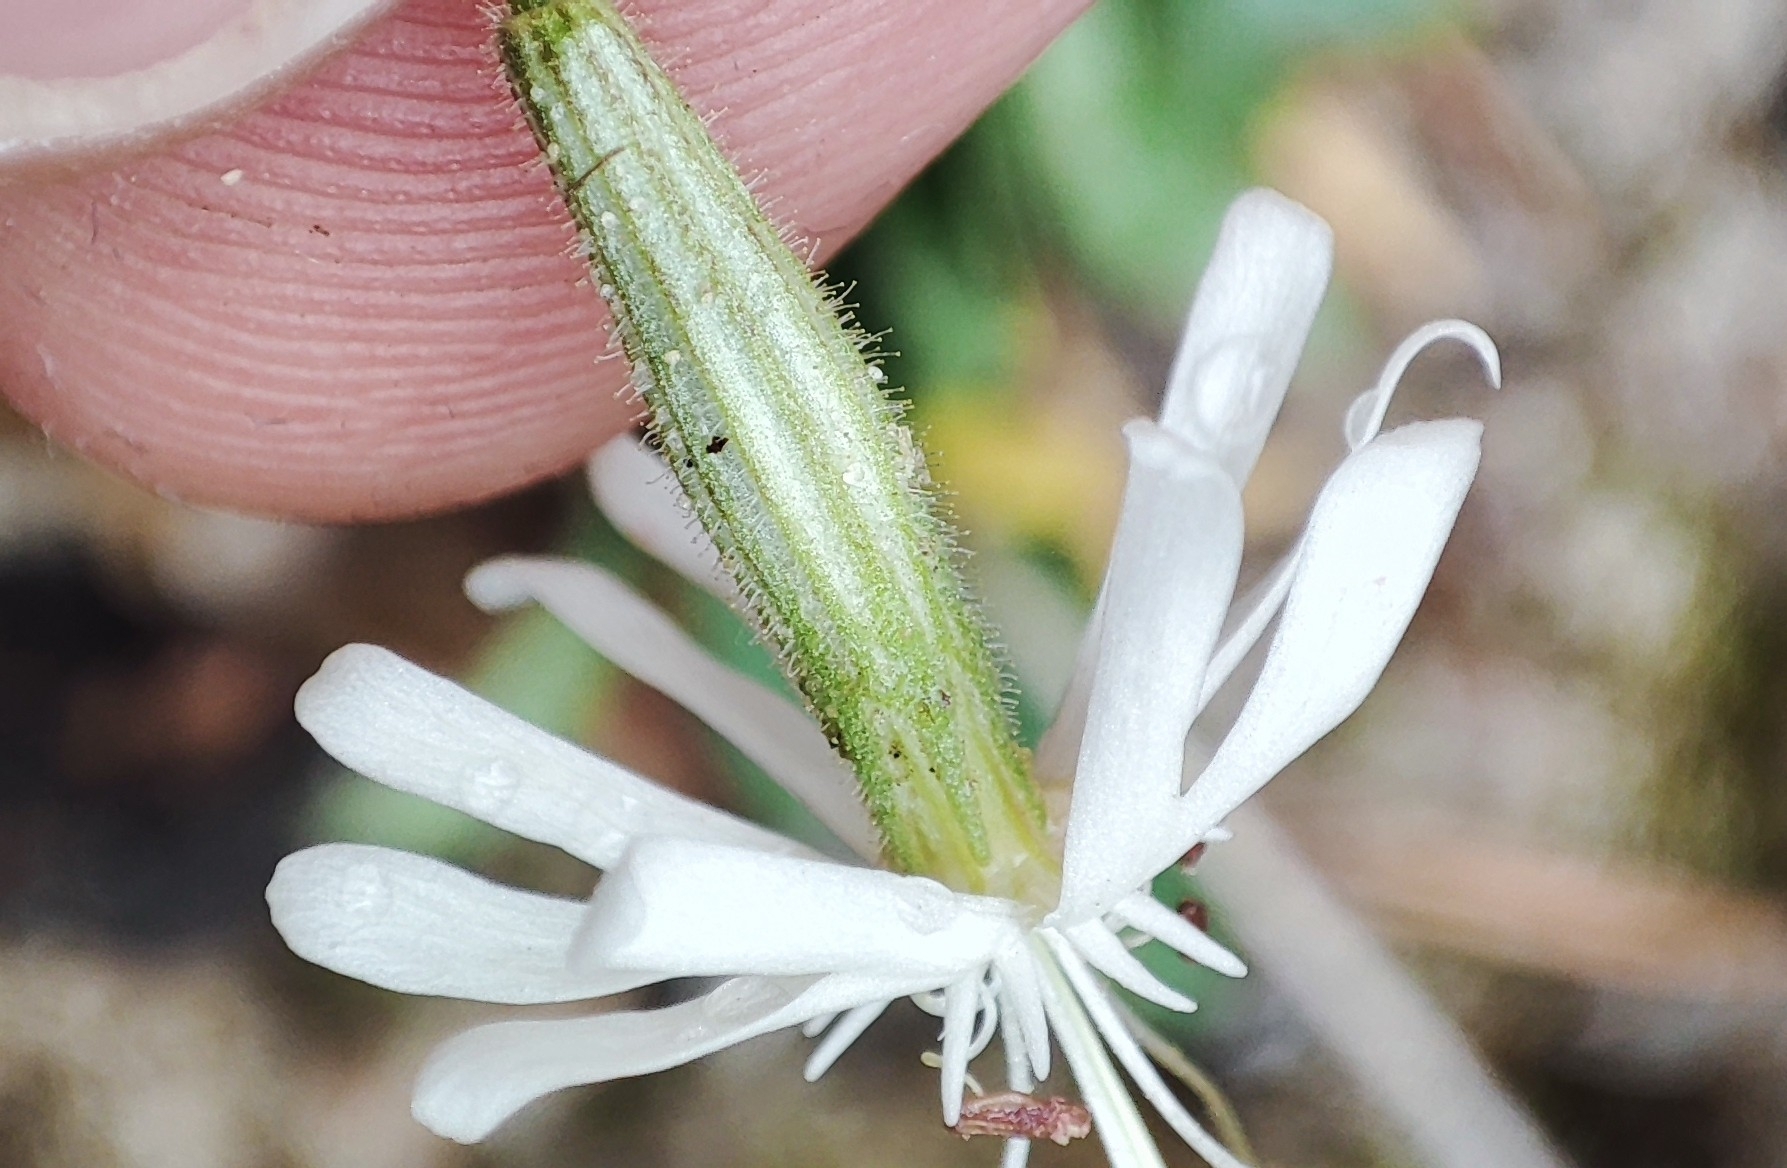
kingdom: Plantae
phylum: Tracheophyta
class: Magnoliopsida
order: Caryophyllales
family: Caryophyllaceae
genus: Silene
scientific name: Silene nutans
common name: Nottingham catchfly
